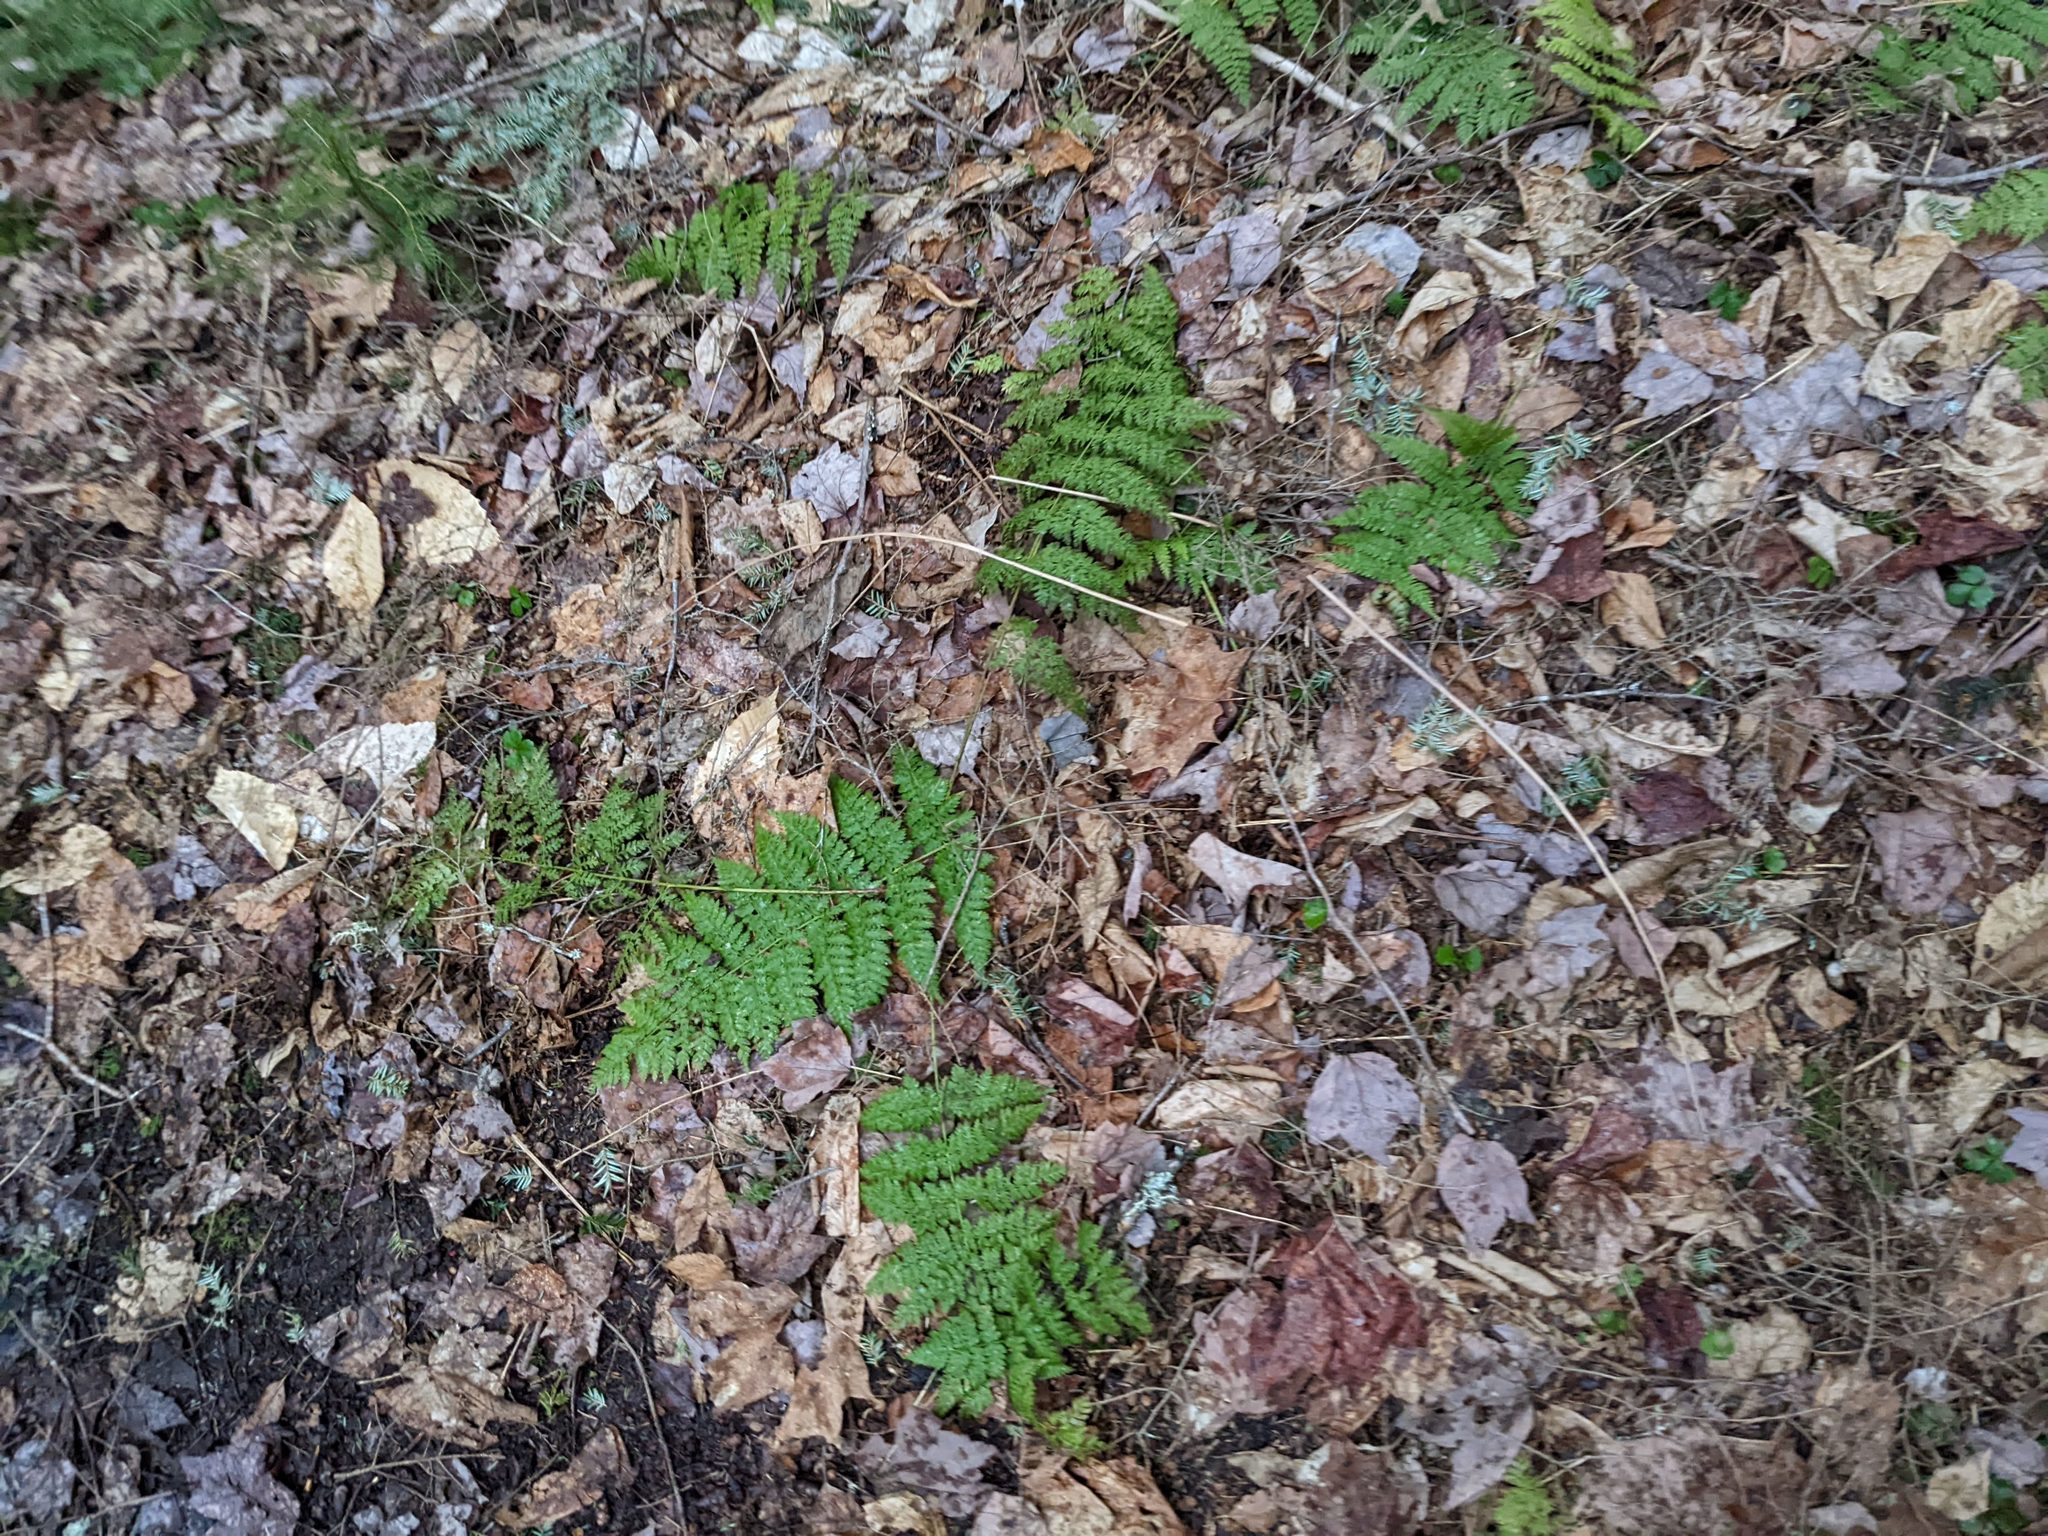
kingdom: Plantae
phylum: Tracheophyta
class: Polypodiopsida
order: Polypodiales
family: Dryopteridaceae
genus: Dryopteris
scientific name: Dryopteris intermedia
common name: Evergreen wood fern
